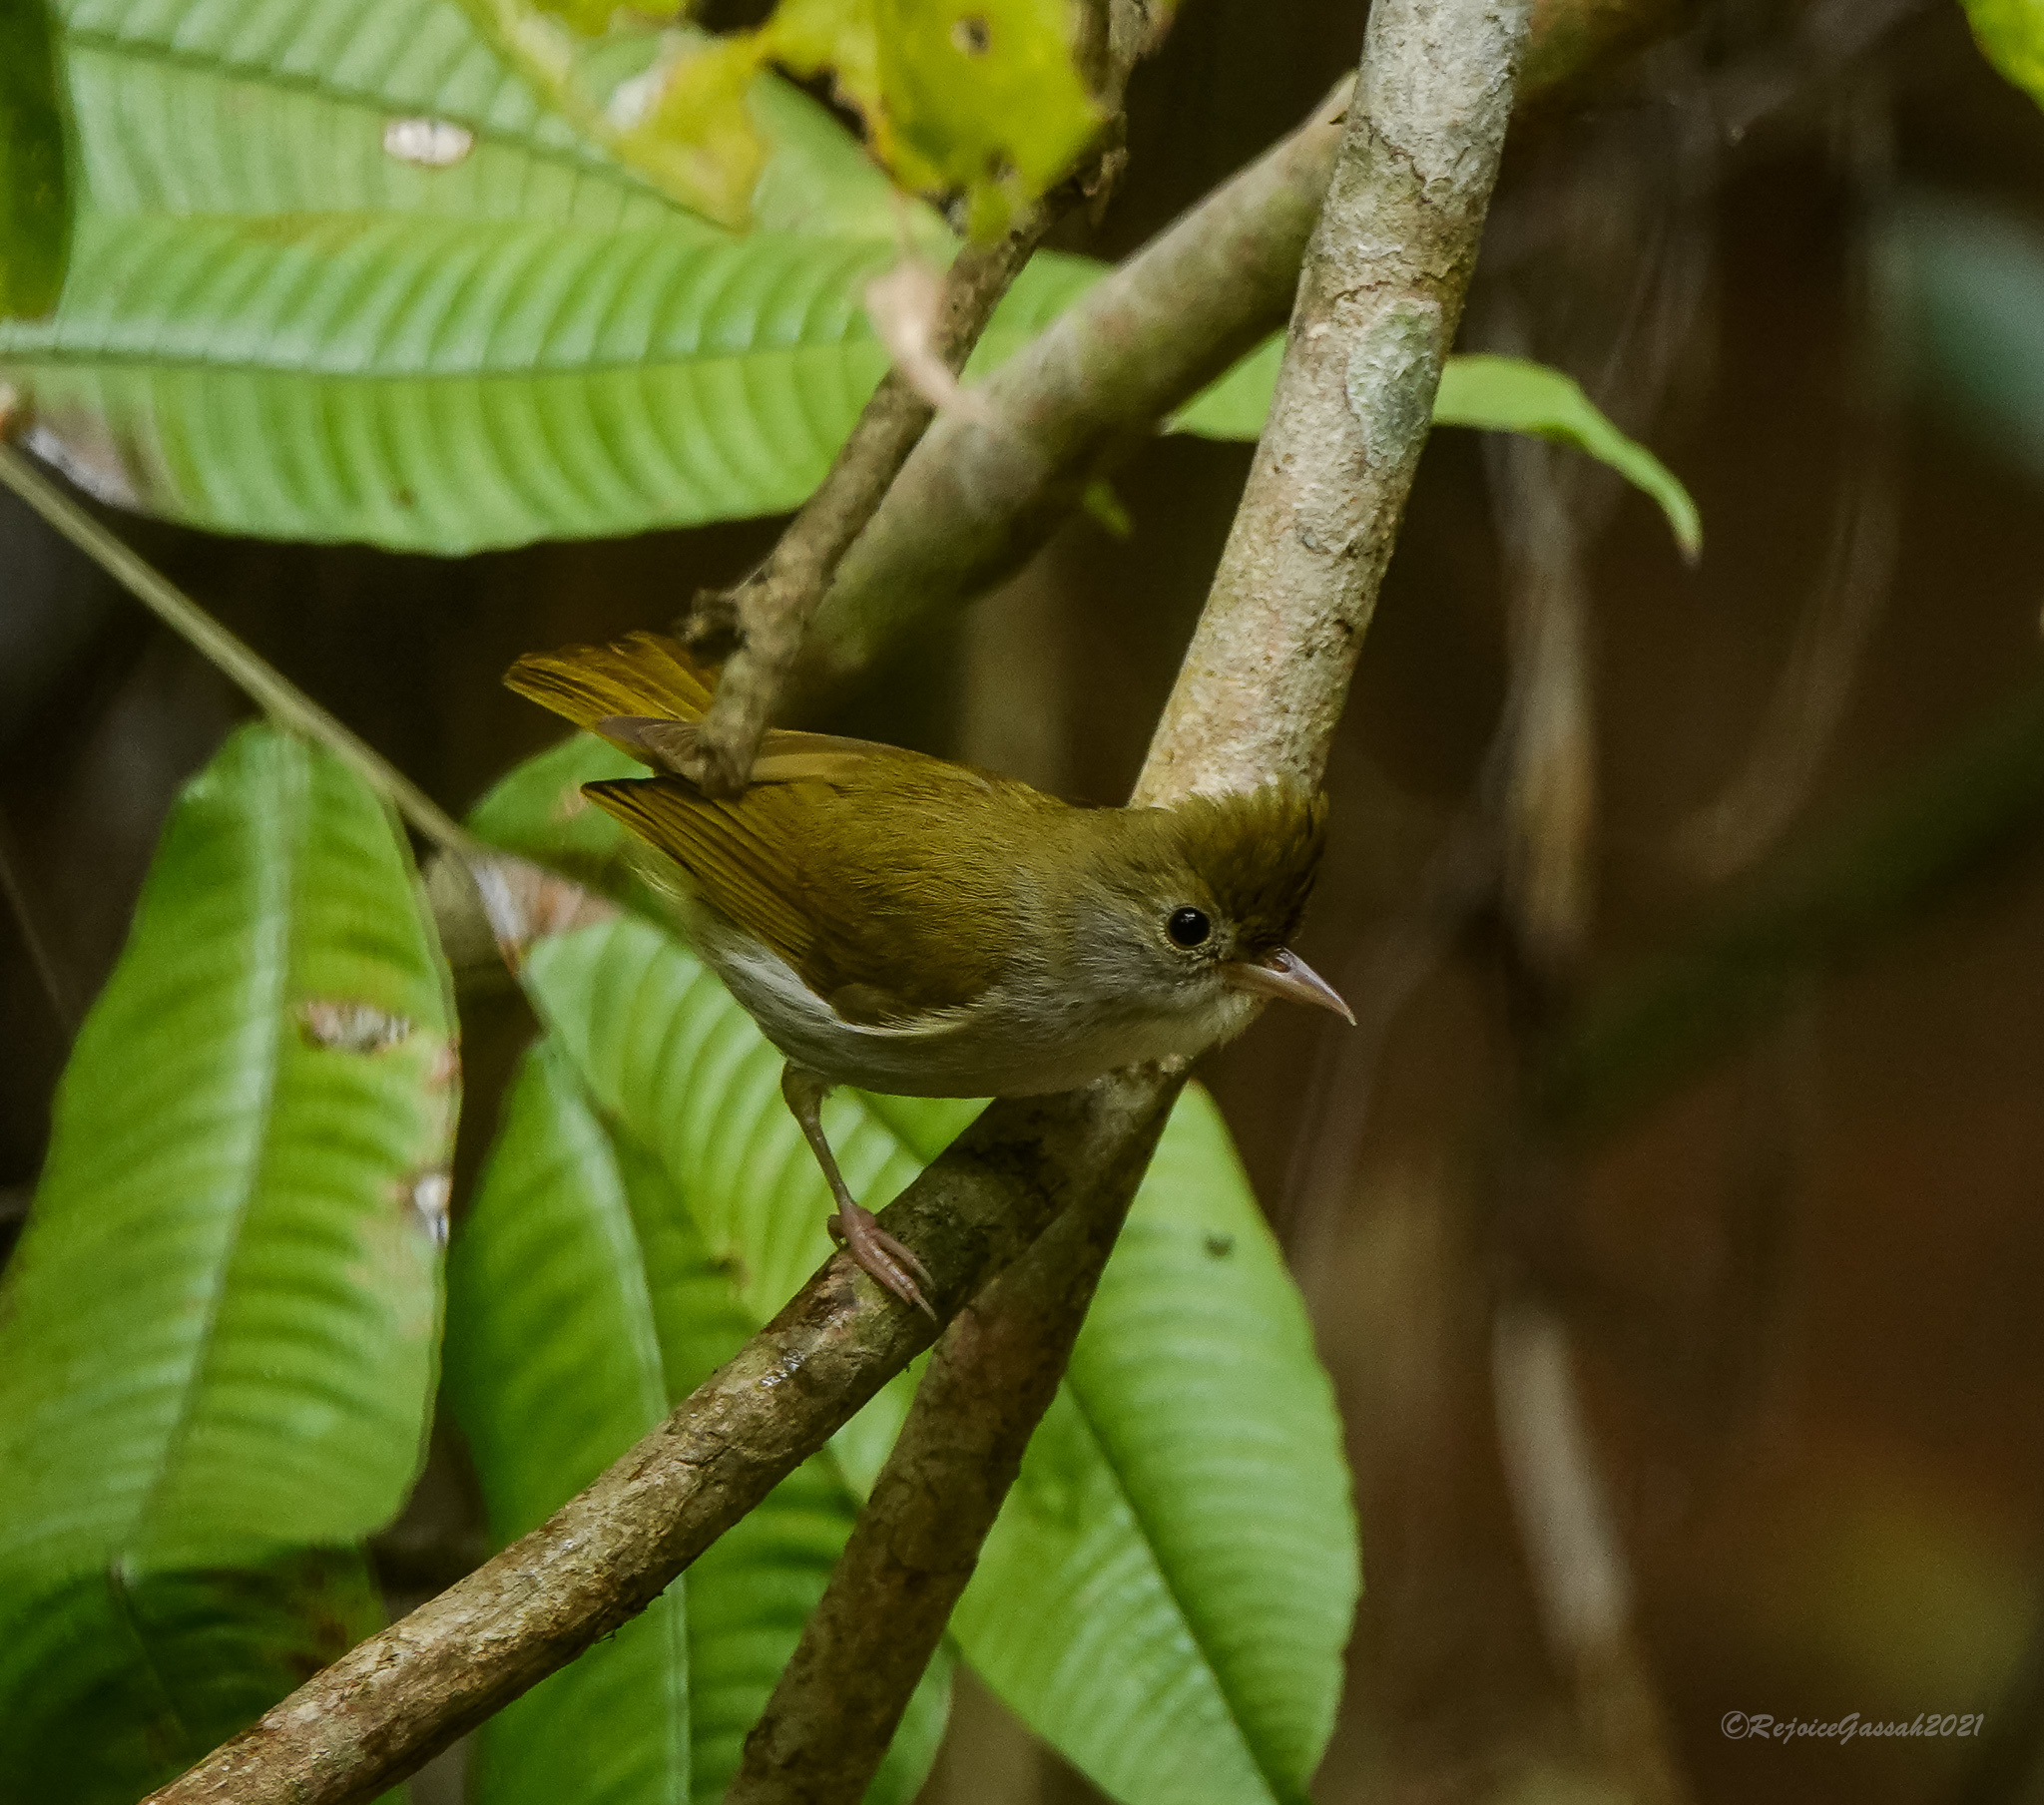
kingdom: Animalia
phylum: Chordata
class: Aves
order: Passeriformes
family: Vireonidae
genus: Erpornis
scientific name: Erpornis zantholeuca
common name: White-bellied erpornis
